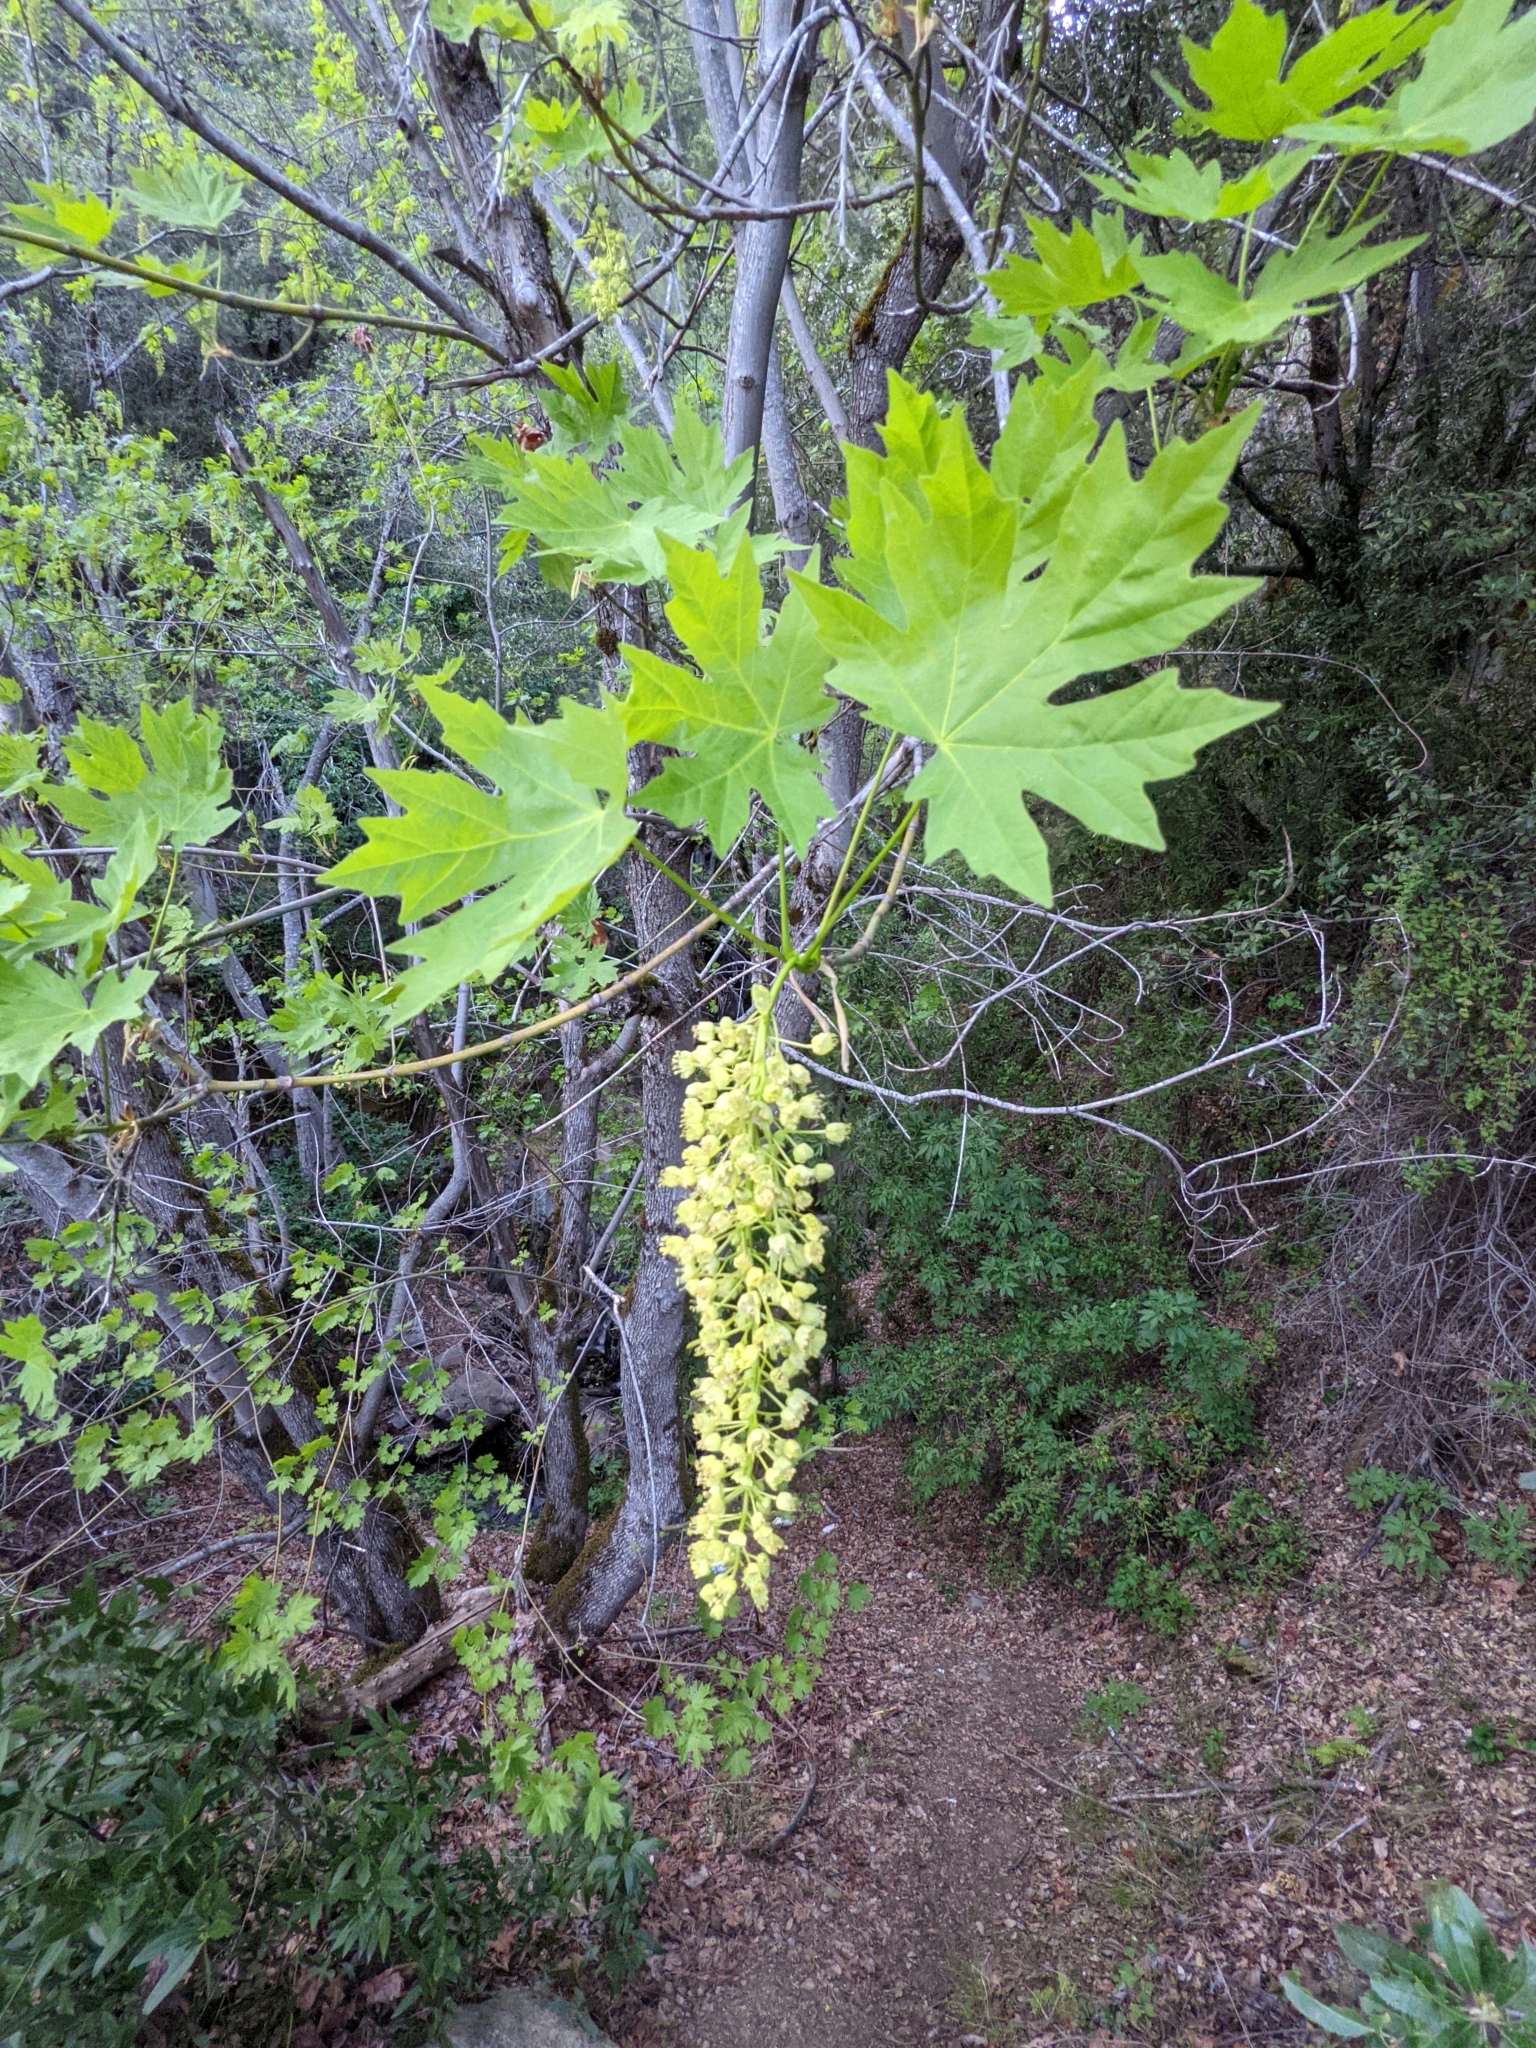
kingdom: Plantae
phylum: Tracheophyta
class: Magnoliopsida
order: Sapindales
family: Sapindaceae
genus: Acer
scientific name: Acer macrophyllum
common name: Oregon maple
